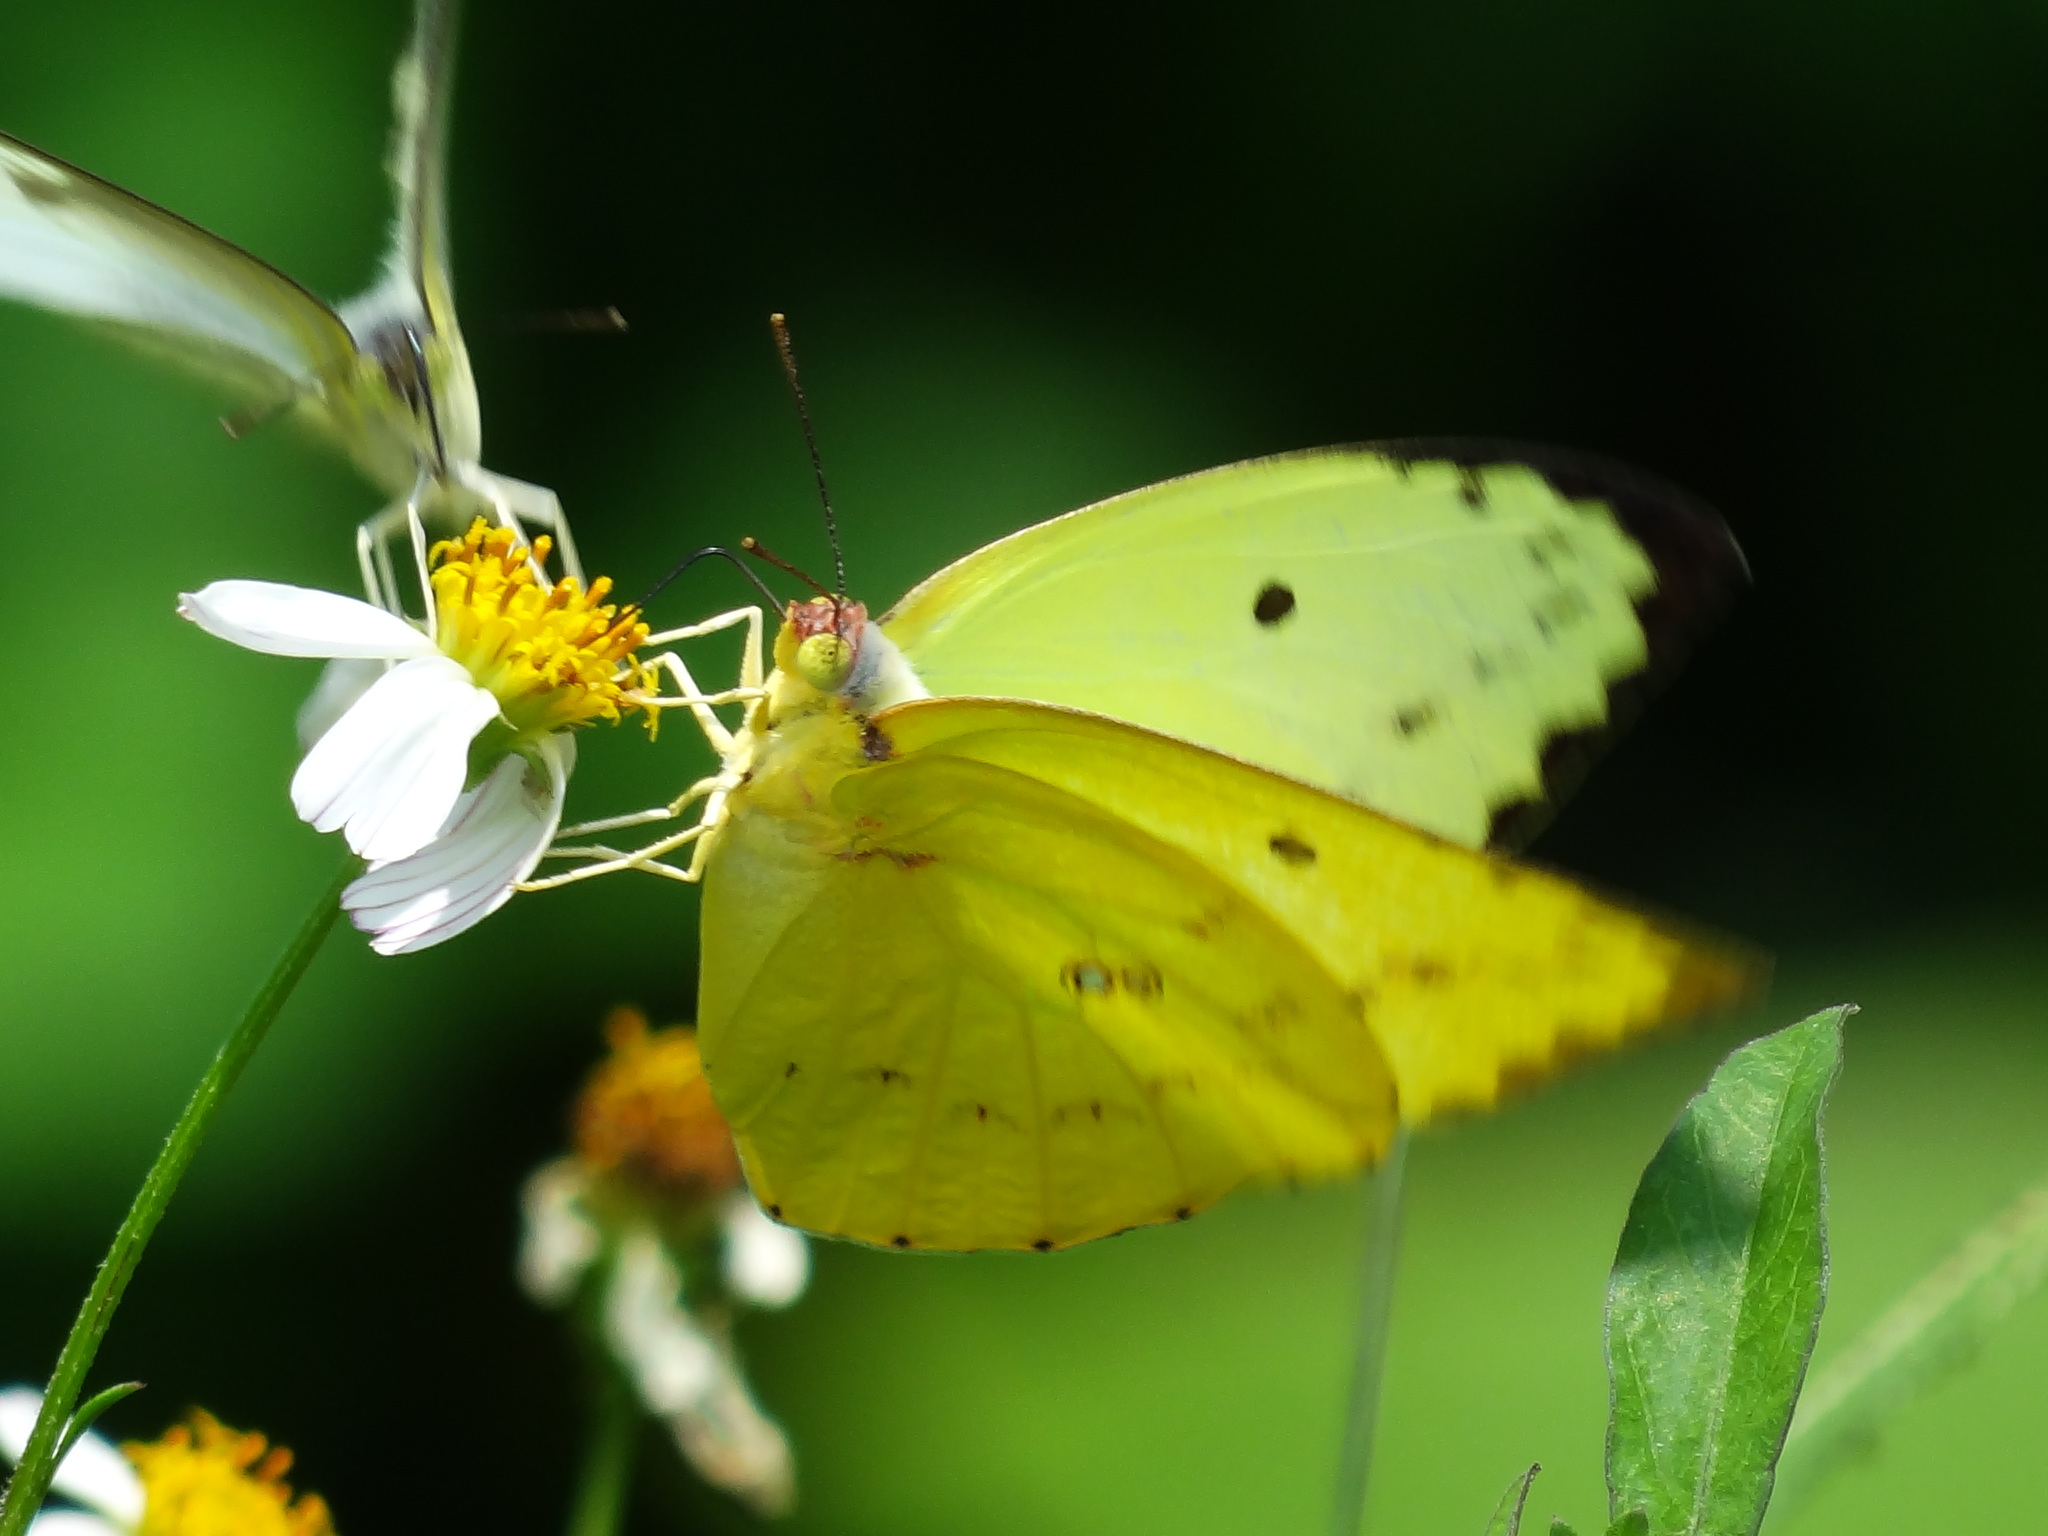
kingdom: Animalia
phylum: Arthropoda
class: Insecta
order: Lepidoptera
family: Pieridae
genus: Catopsilia
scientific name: Catopsilia pomona
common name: Common emigrant
